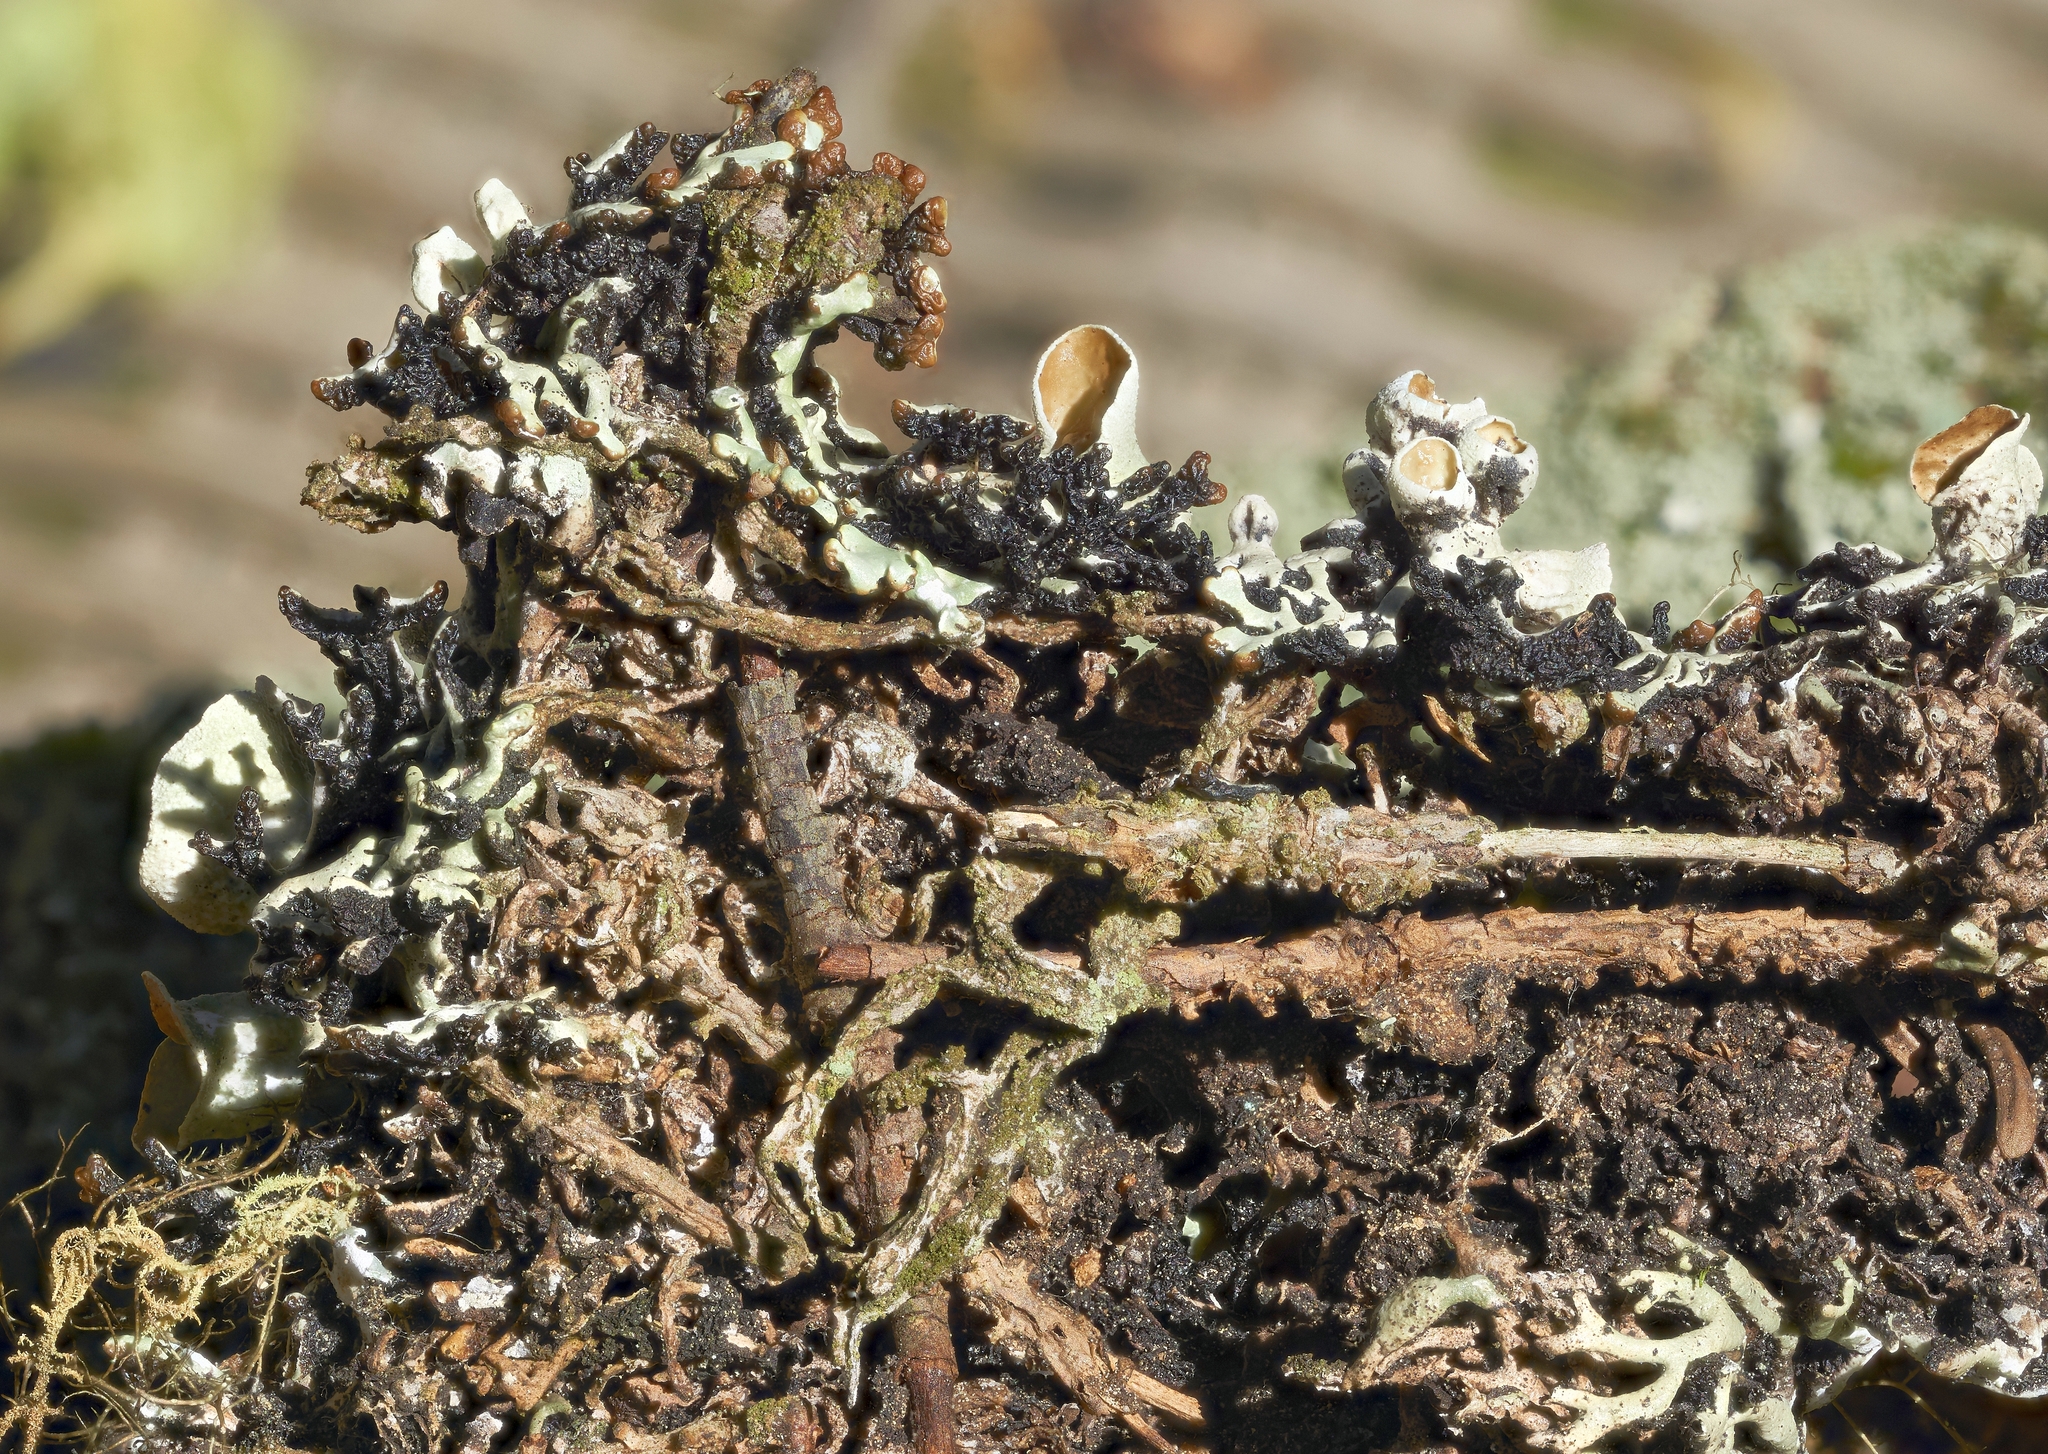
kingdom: Fungi
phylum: Ascomycota
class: Lecanoromycetes
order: Lecanorales
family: Parmeliaceae
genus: Hypogymnia
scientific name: Hypogymnia krogiae
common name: Freckled tube lichen
